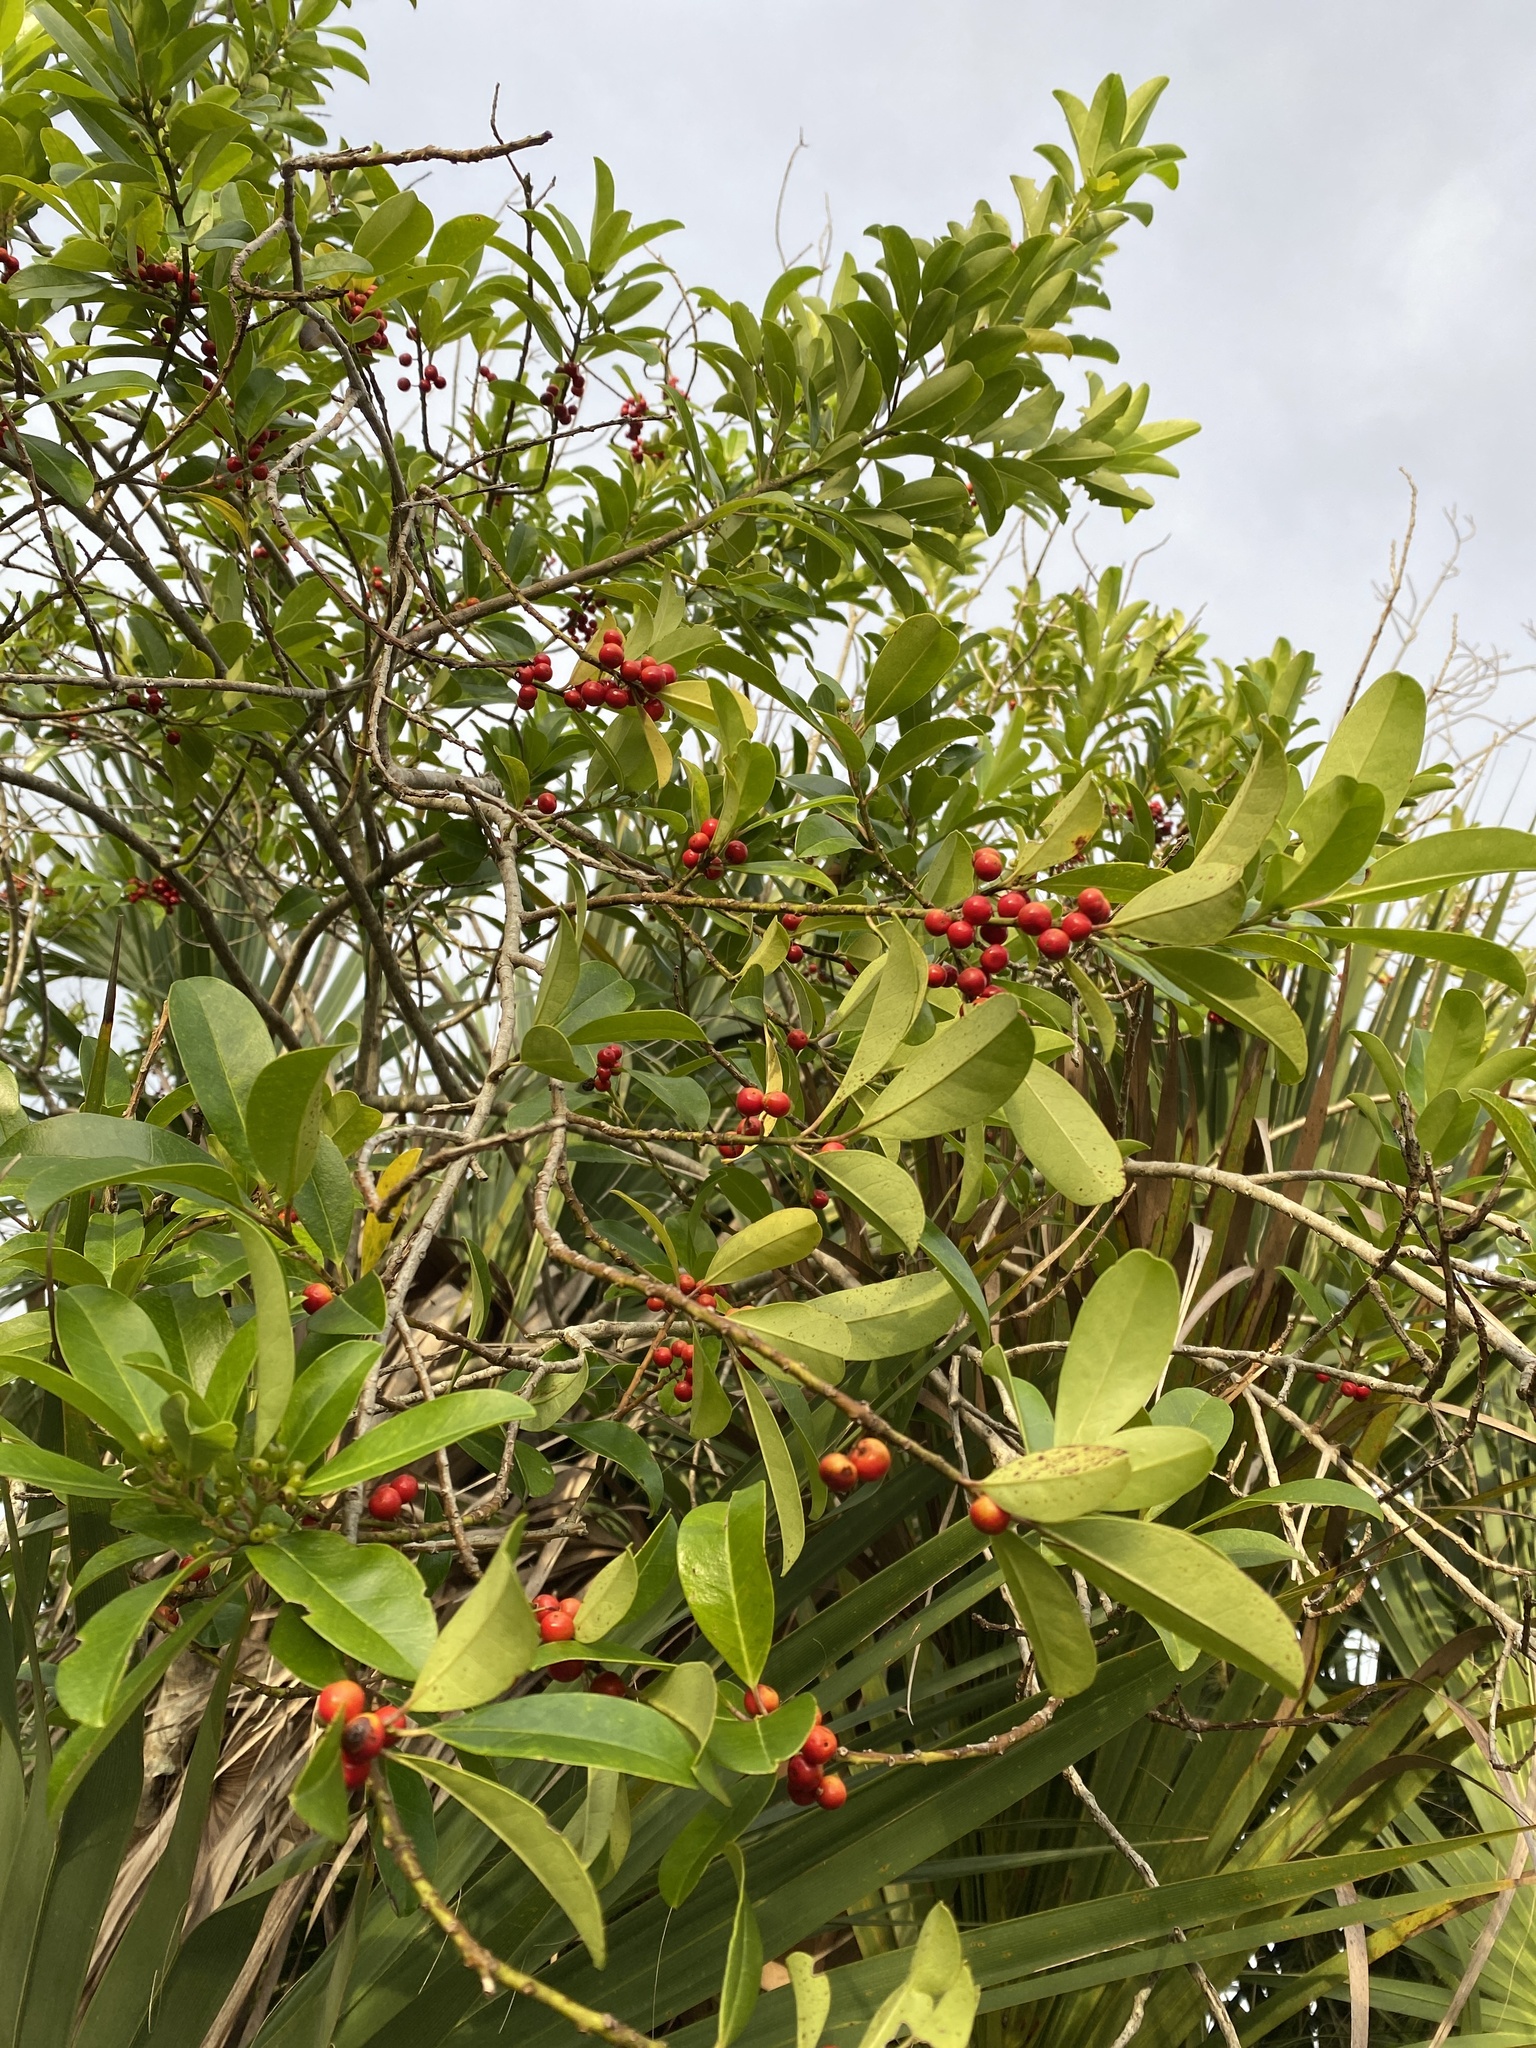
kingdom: Plantae
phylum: Tracheophyta
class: Magnoliopsida
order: Aquifoliales
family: Aquifoliaceae
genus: Ilex
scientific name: Ilex cassine
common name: Dahoon
